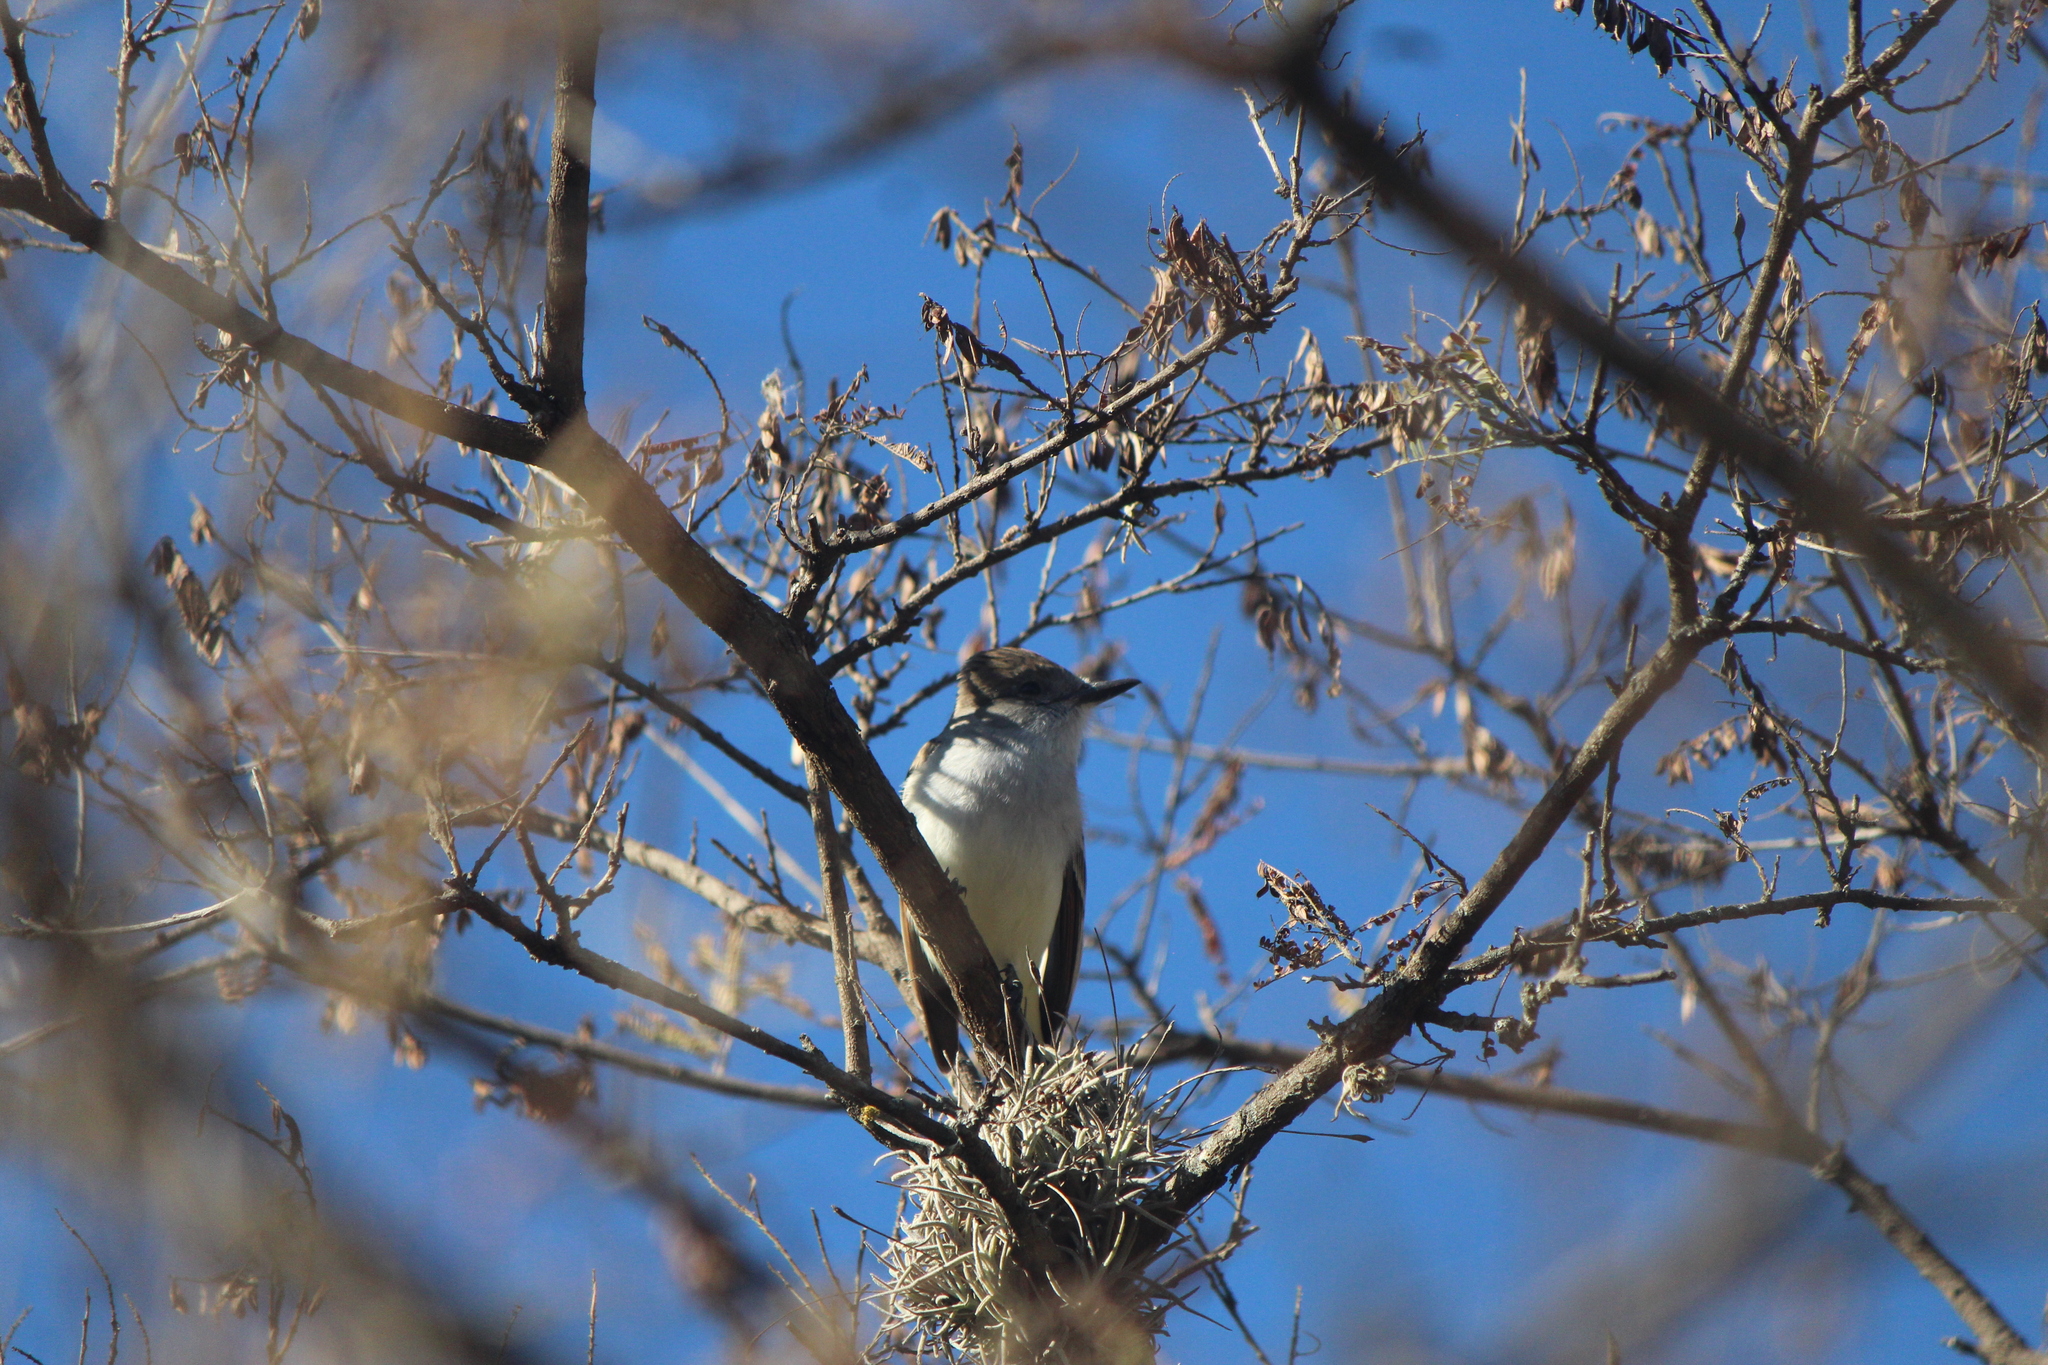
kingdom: Animalia
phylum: Chordata
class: Aves
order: Passeriformes
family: Tyrannidae
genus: Myiarchus
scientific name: Myiarchus cinerascens
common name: Ash-throated flycatcher
